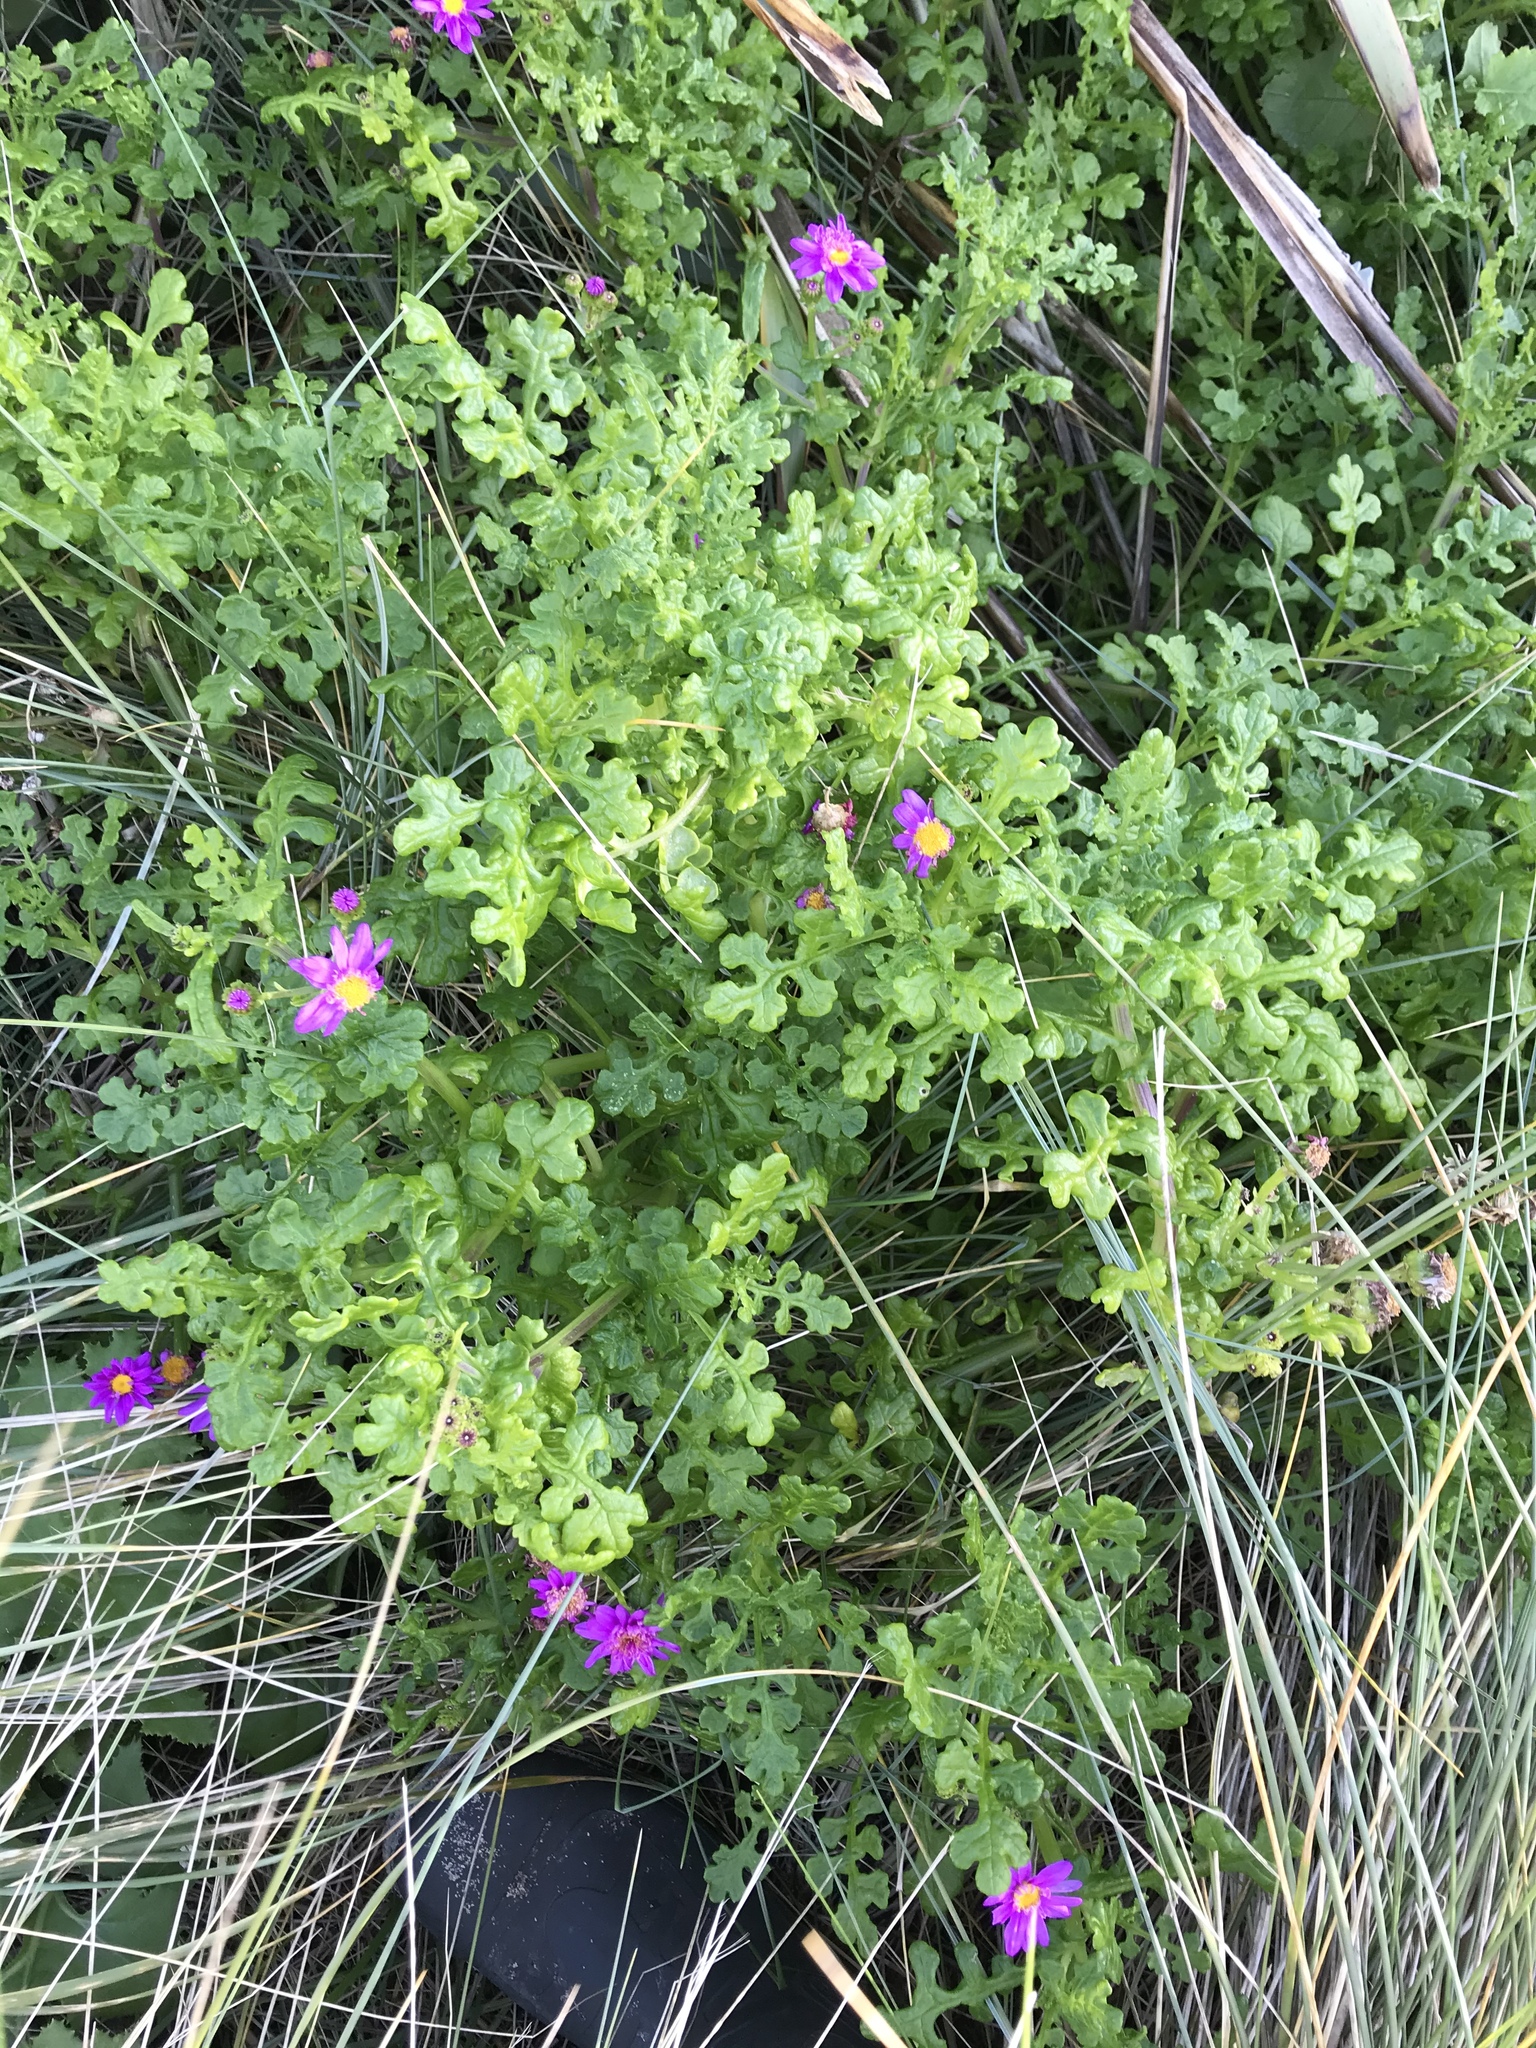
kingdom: Plantae
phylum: Tracheophyta
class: Magnoliopsida
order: Asterales
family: Asteraceae
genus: Senecio
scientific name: Senecio elegans
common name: Purple groundsel
